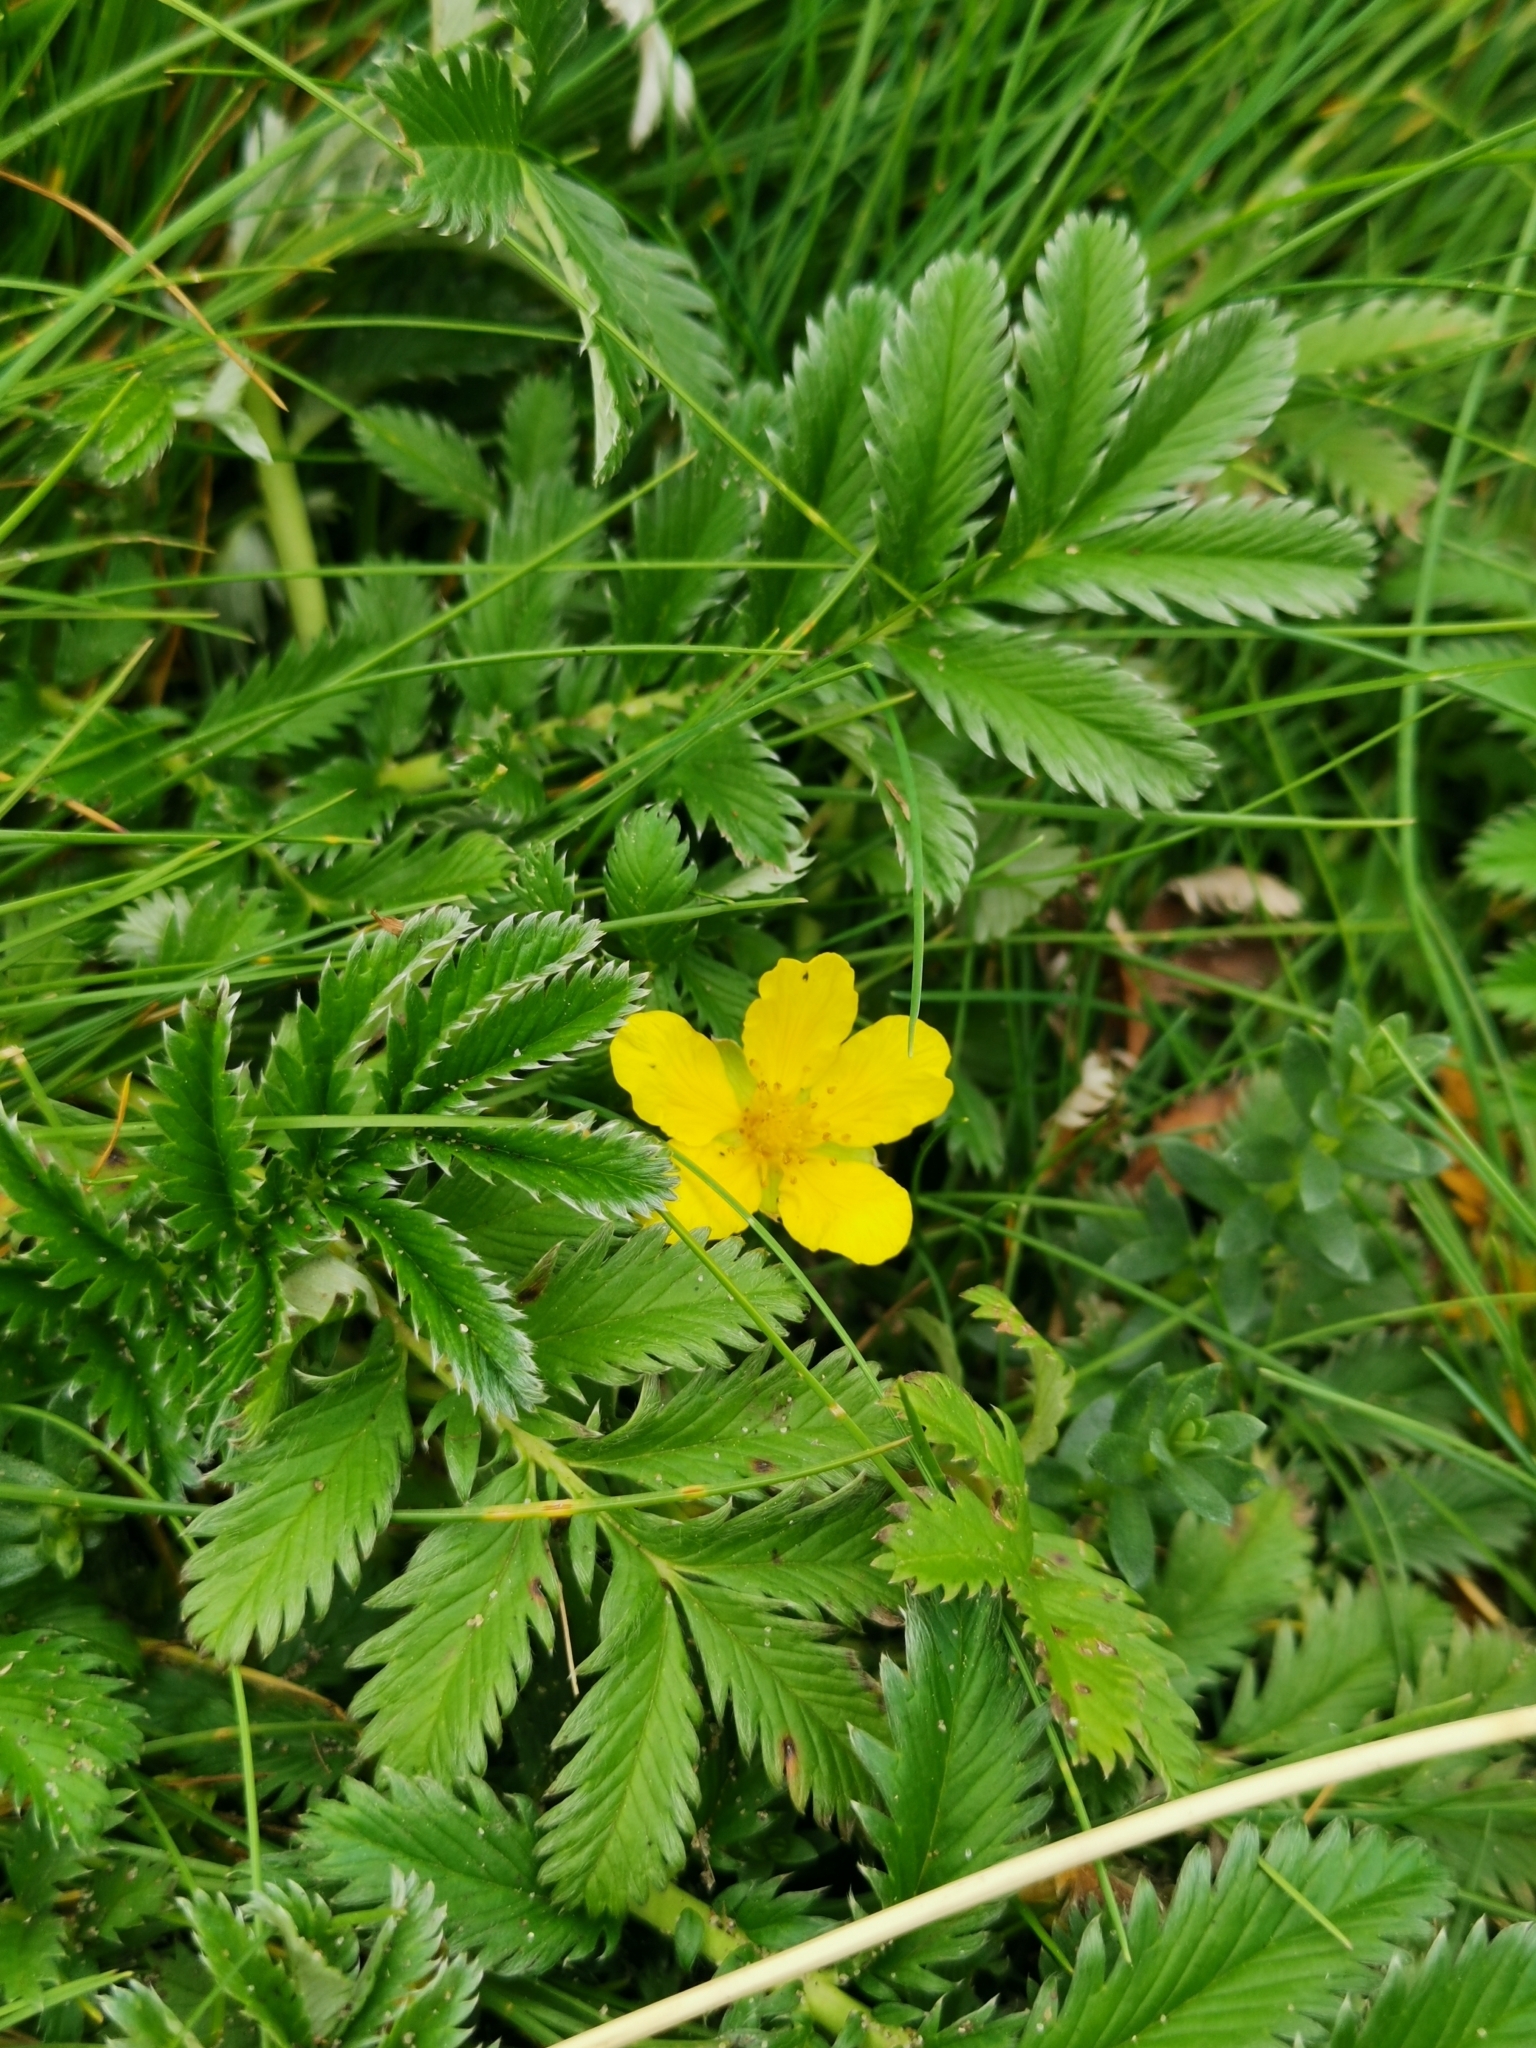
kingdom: Plantae
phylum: Tracheophyta
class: Magnoliopsida
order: Rosales
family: Rosaceae
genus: Argentina
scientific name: Argentina anserina
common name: Common silverweed
